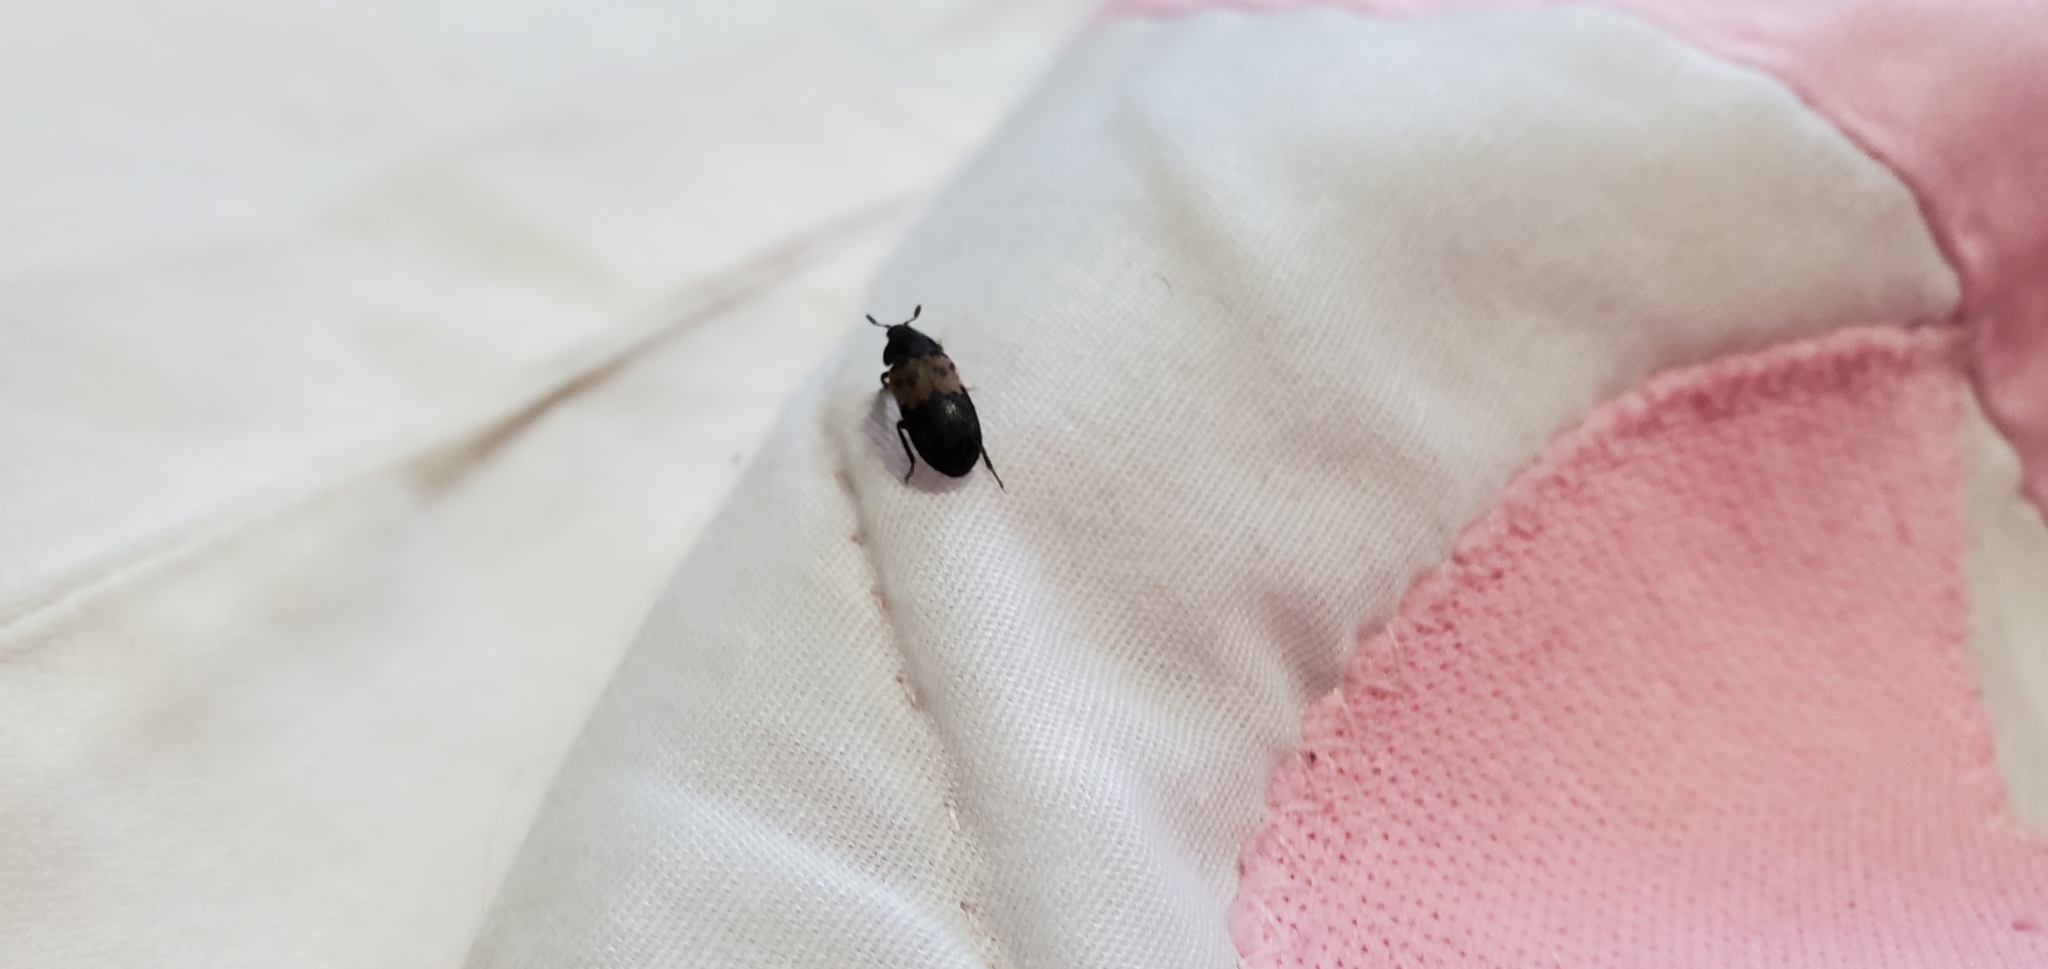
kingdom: Animalia
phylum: Arthropoda
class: Insecta
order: Coleoptera
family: Dermestidae
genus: Dermestes
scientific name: Dermestes lardarius
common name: Larder beetle
